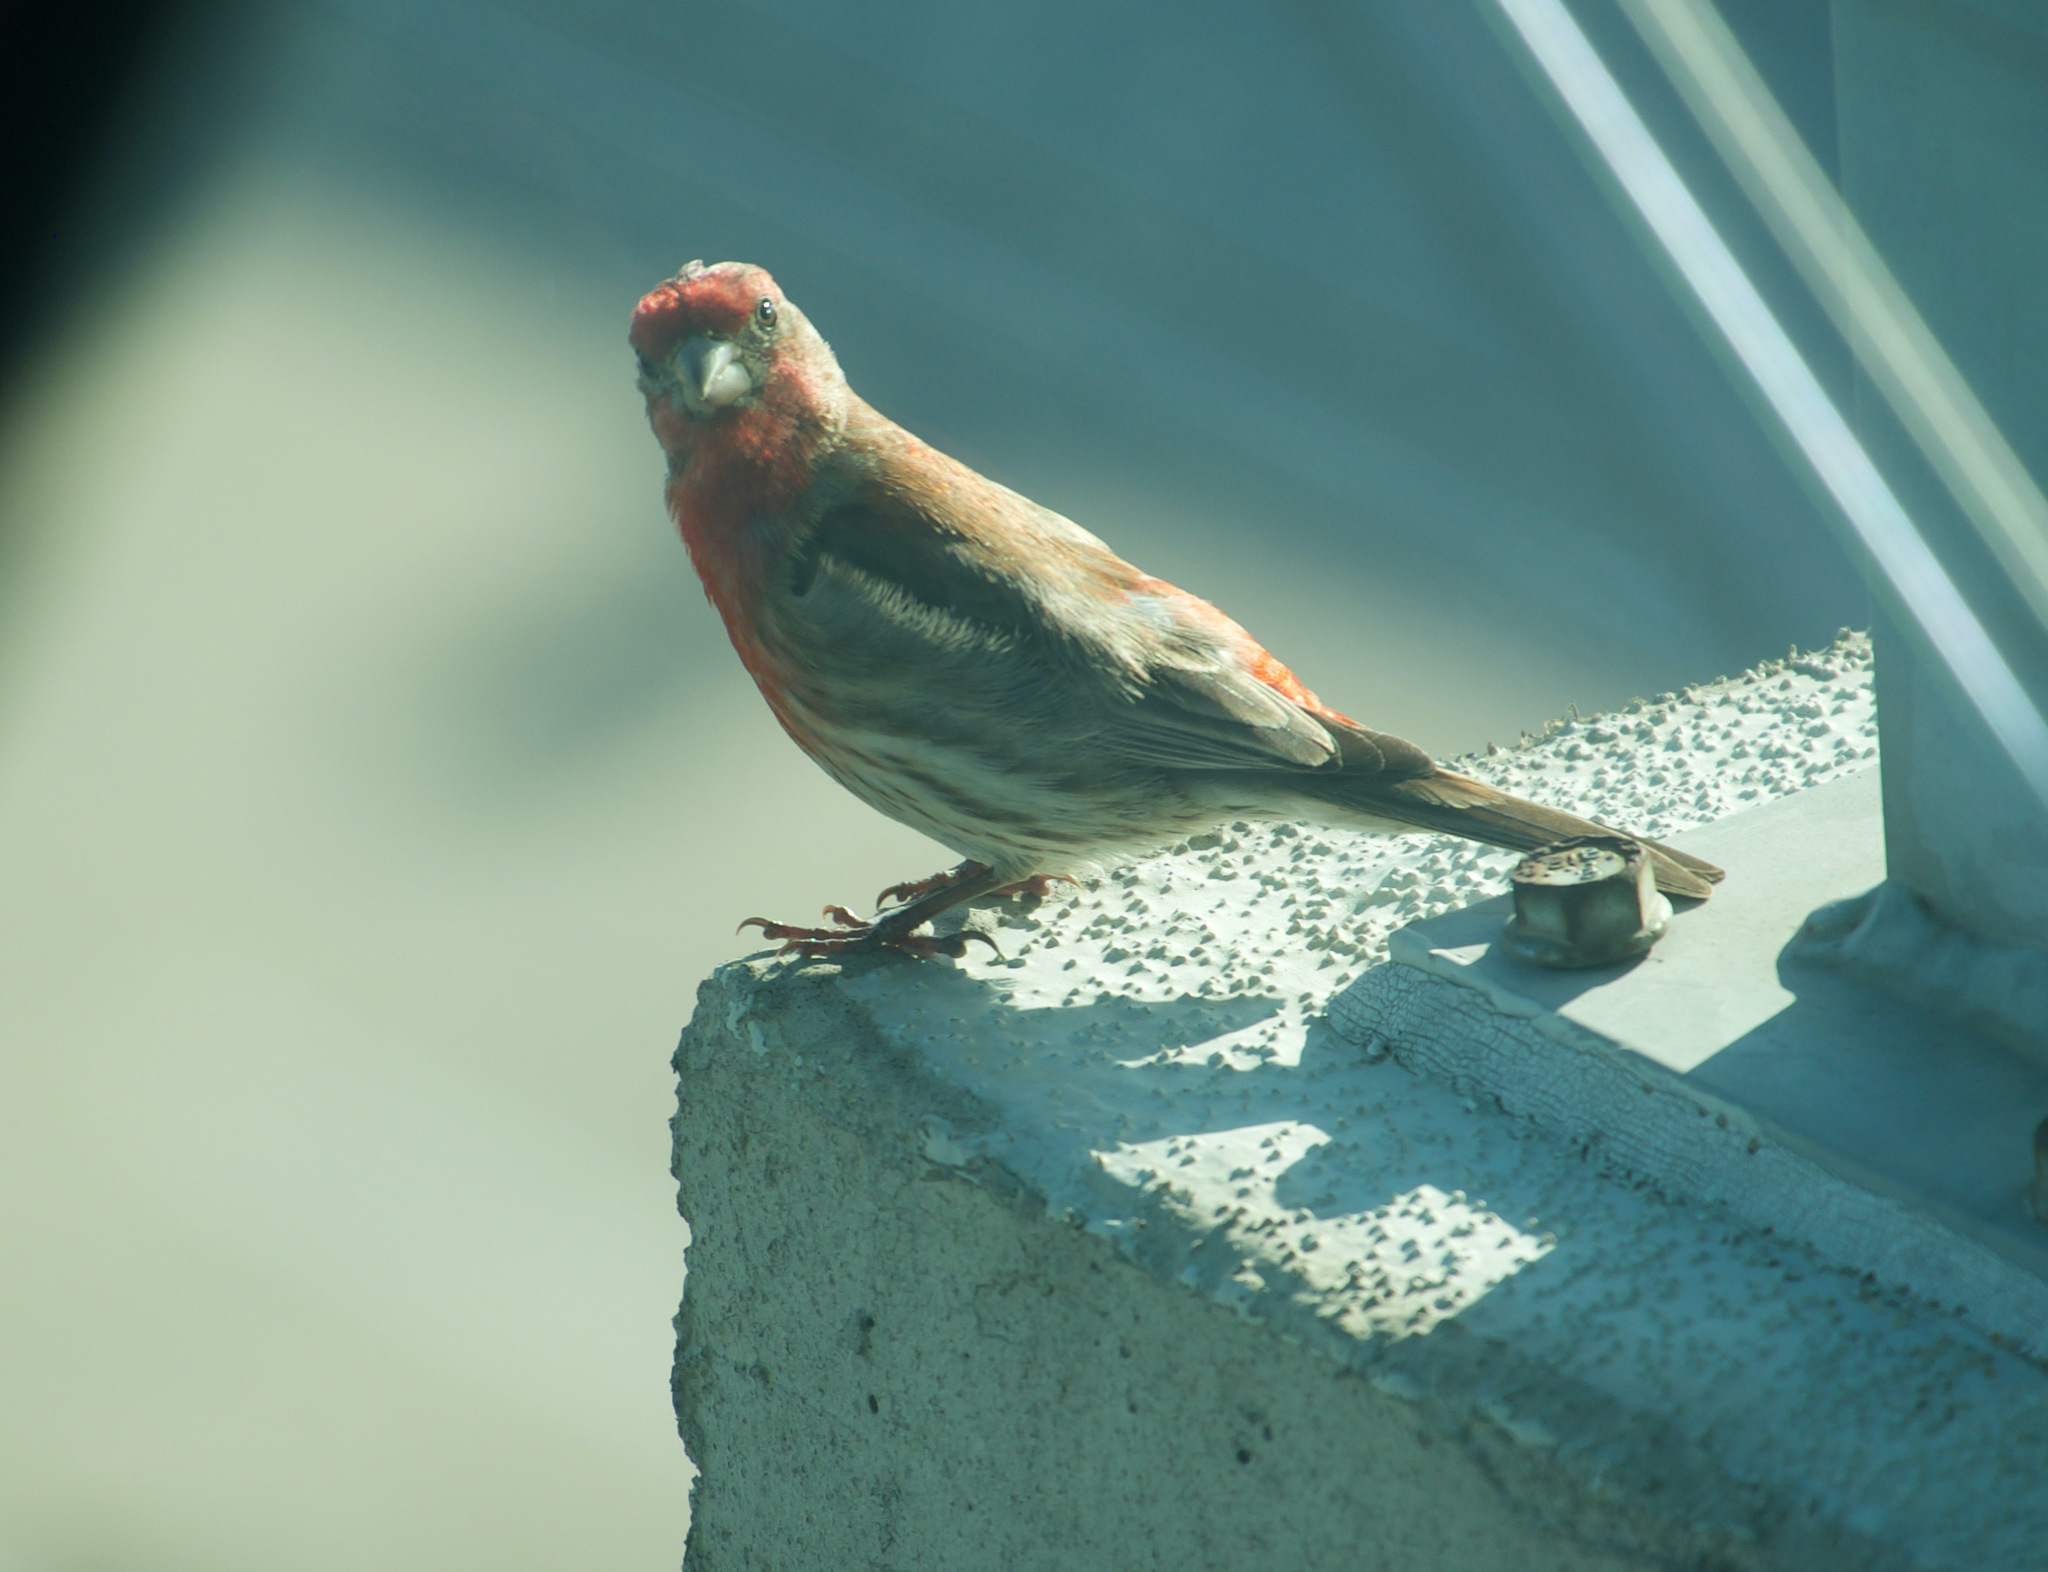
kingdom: Animalia
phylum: Chordata
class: Aves
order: Passeriformes
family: Fringillidae
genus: Haemorhous
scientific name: Haemorhous mexicanus
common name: House finch
